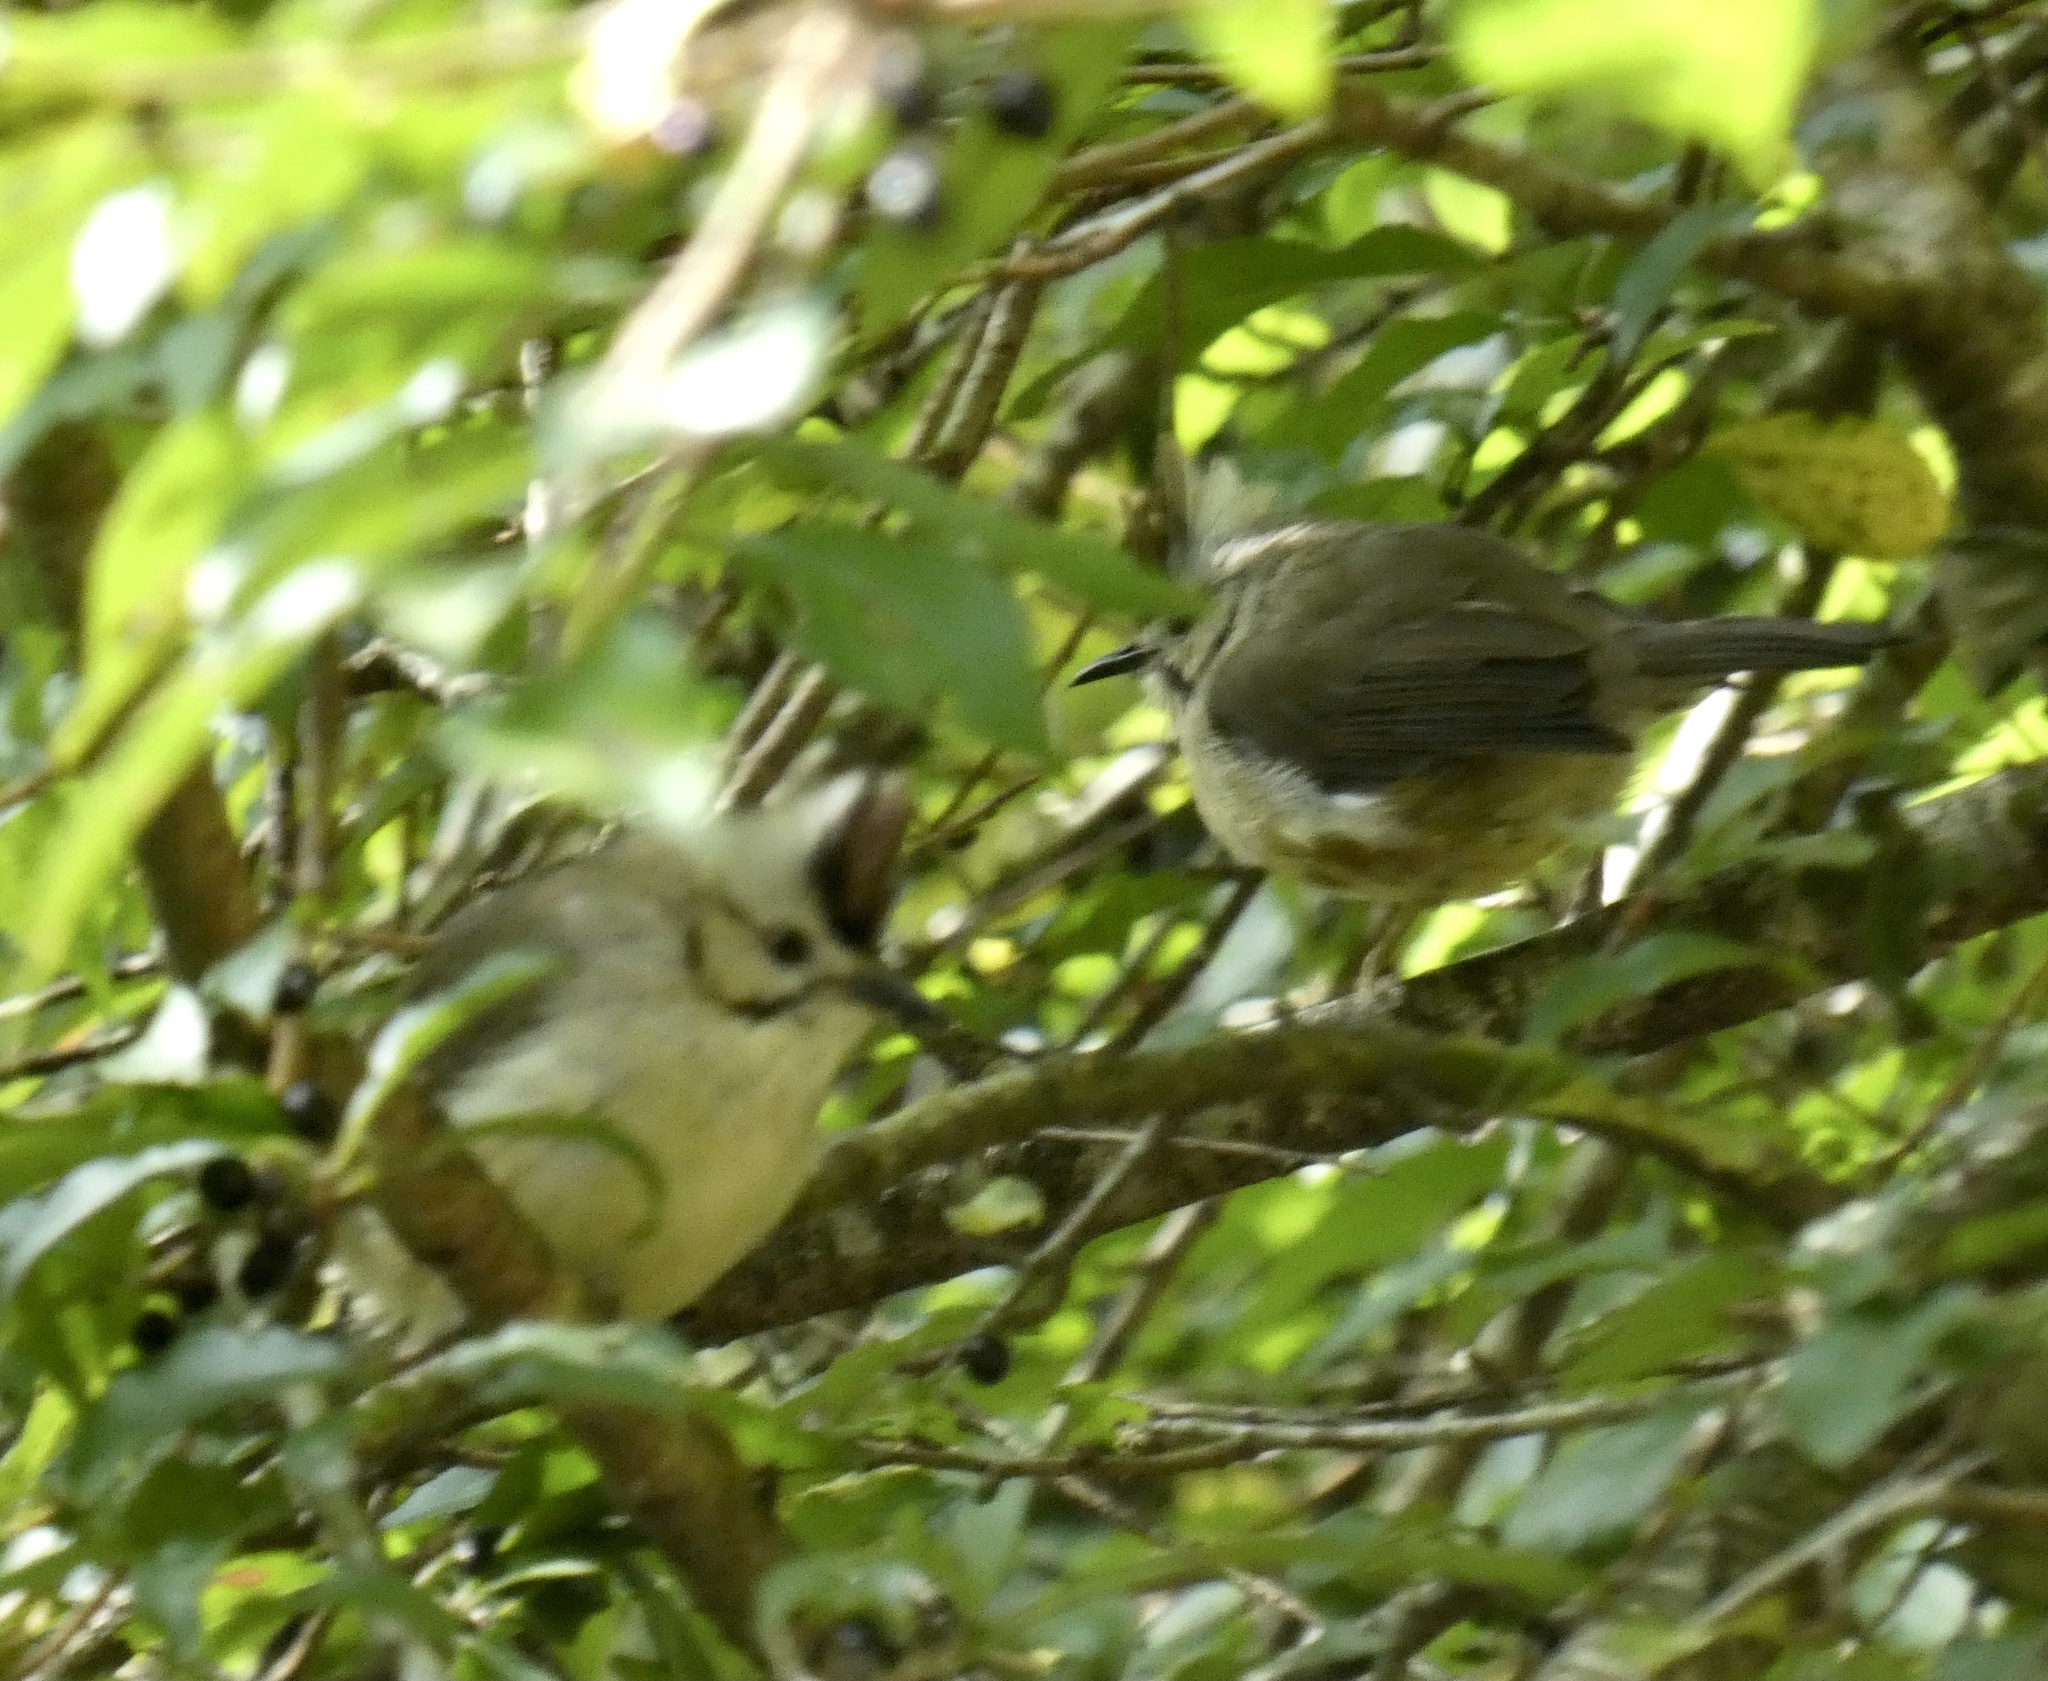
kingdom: Animalia
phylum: Chordata
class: Aves
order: Passeriformes
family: Zosteropidae
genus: Yuhina
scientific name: Yuhina brunneiceps
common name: Taiwan yuhina
